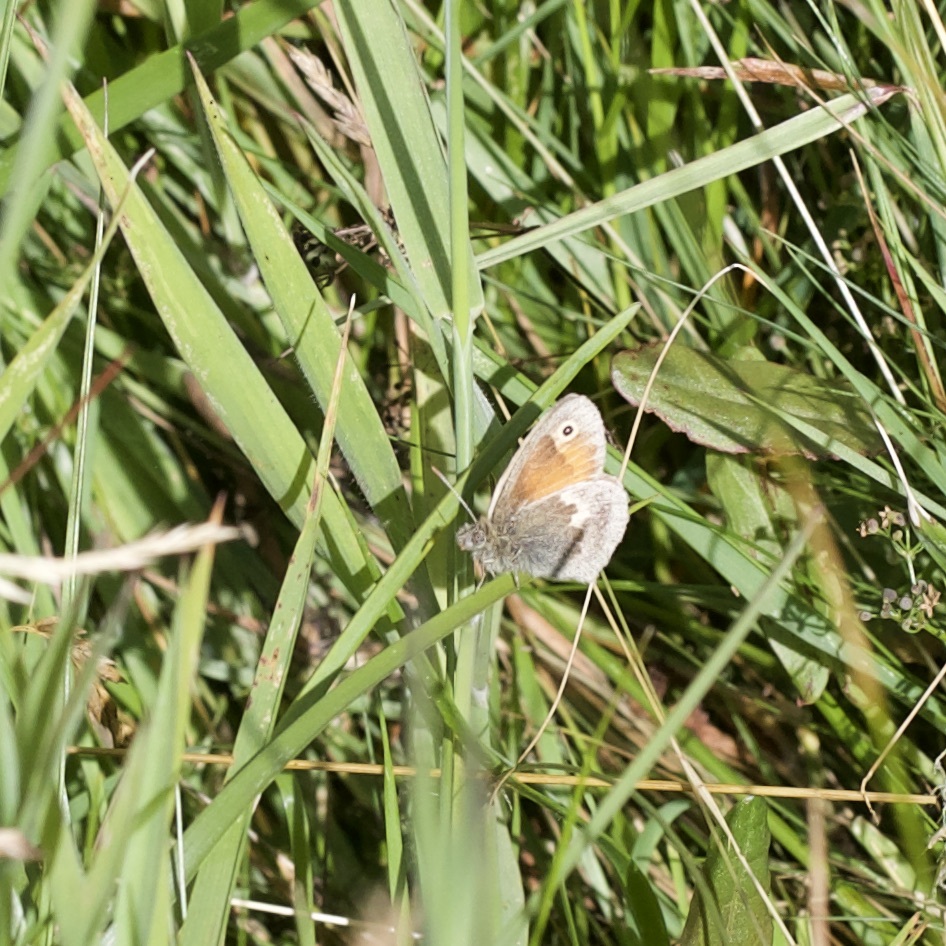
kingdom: Animalia
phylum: Arthropoda
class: Insecta
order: Lepidoptera
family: Nymphalidae
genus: Coenonympha
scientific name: Coenonympha pamphilus
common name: Small heath
